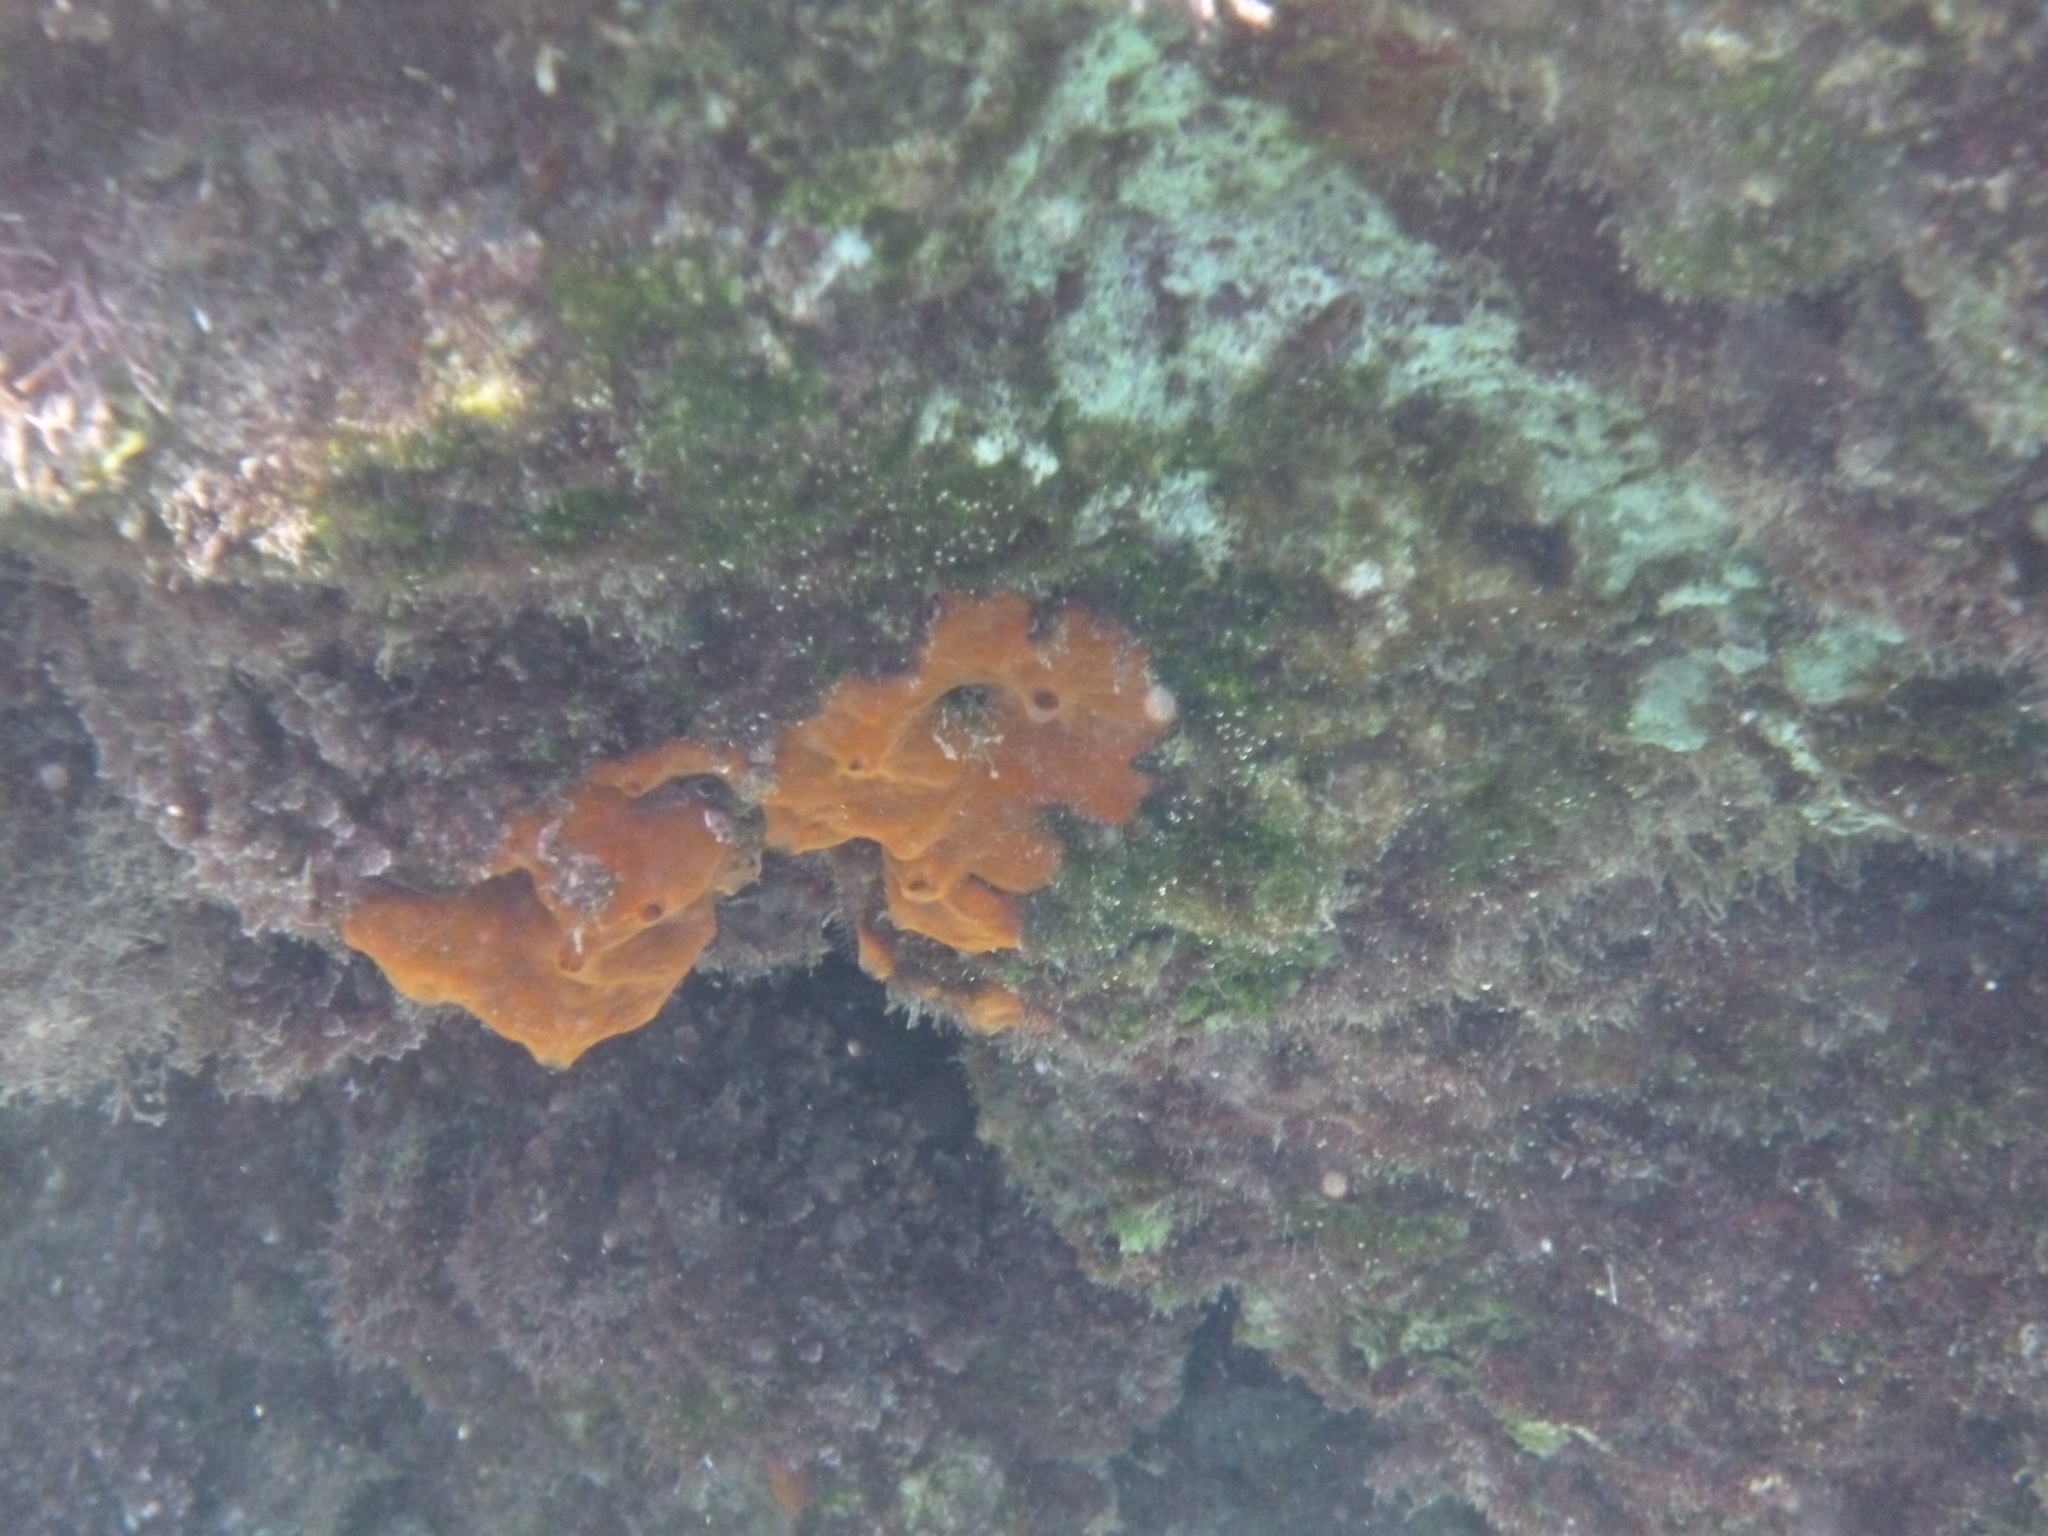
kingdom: Animalia
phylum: Porifera
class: Demospongiae
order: Poecilosclerida
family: Crambeidae
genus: Crambe
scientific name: Crambe crambe
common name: Orange-red encrusting sponge
